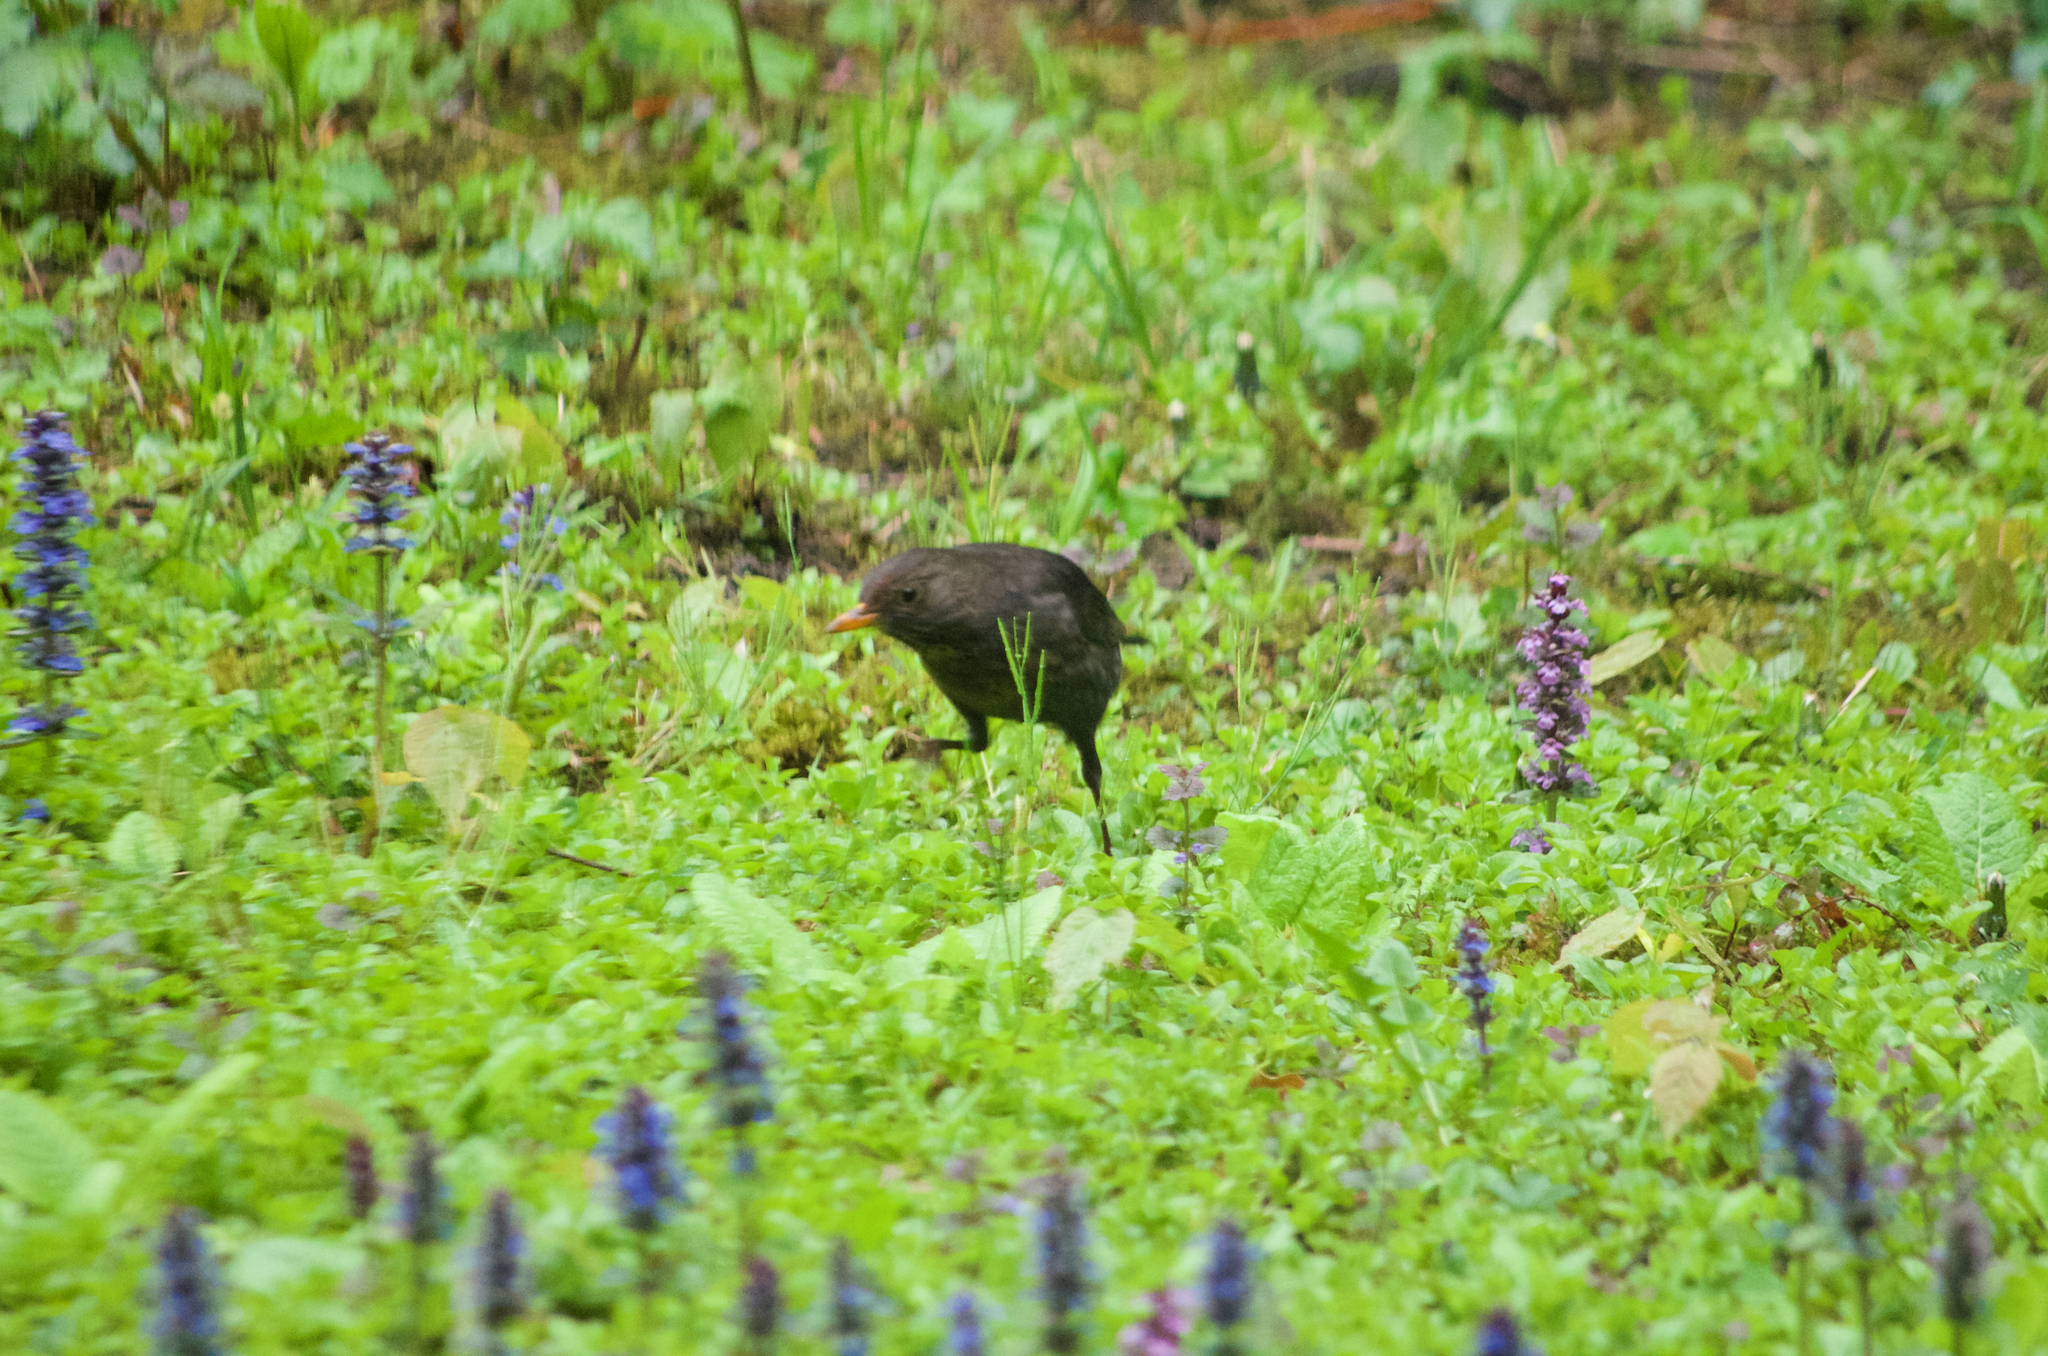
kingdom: Animalia
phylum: Chordata
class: Aves
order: Passeriformes
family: Turdidae
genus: Turdus
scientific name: Turdus merula
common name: Common blackbird
